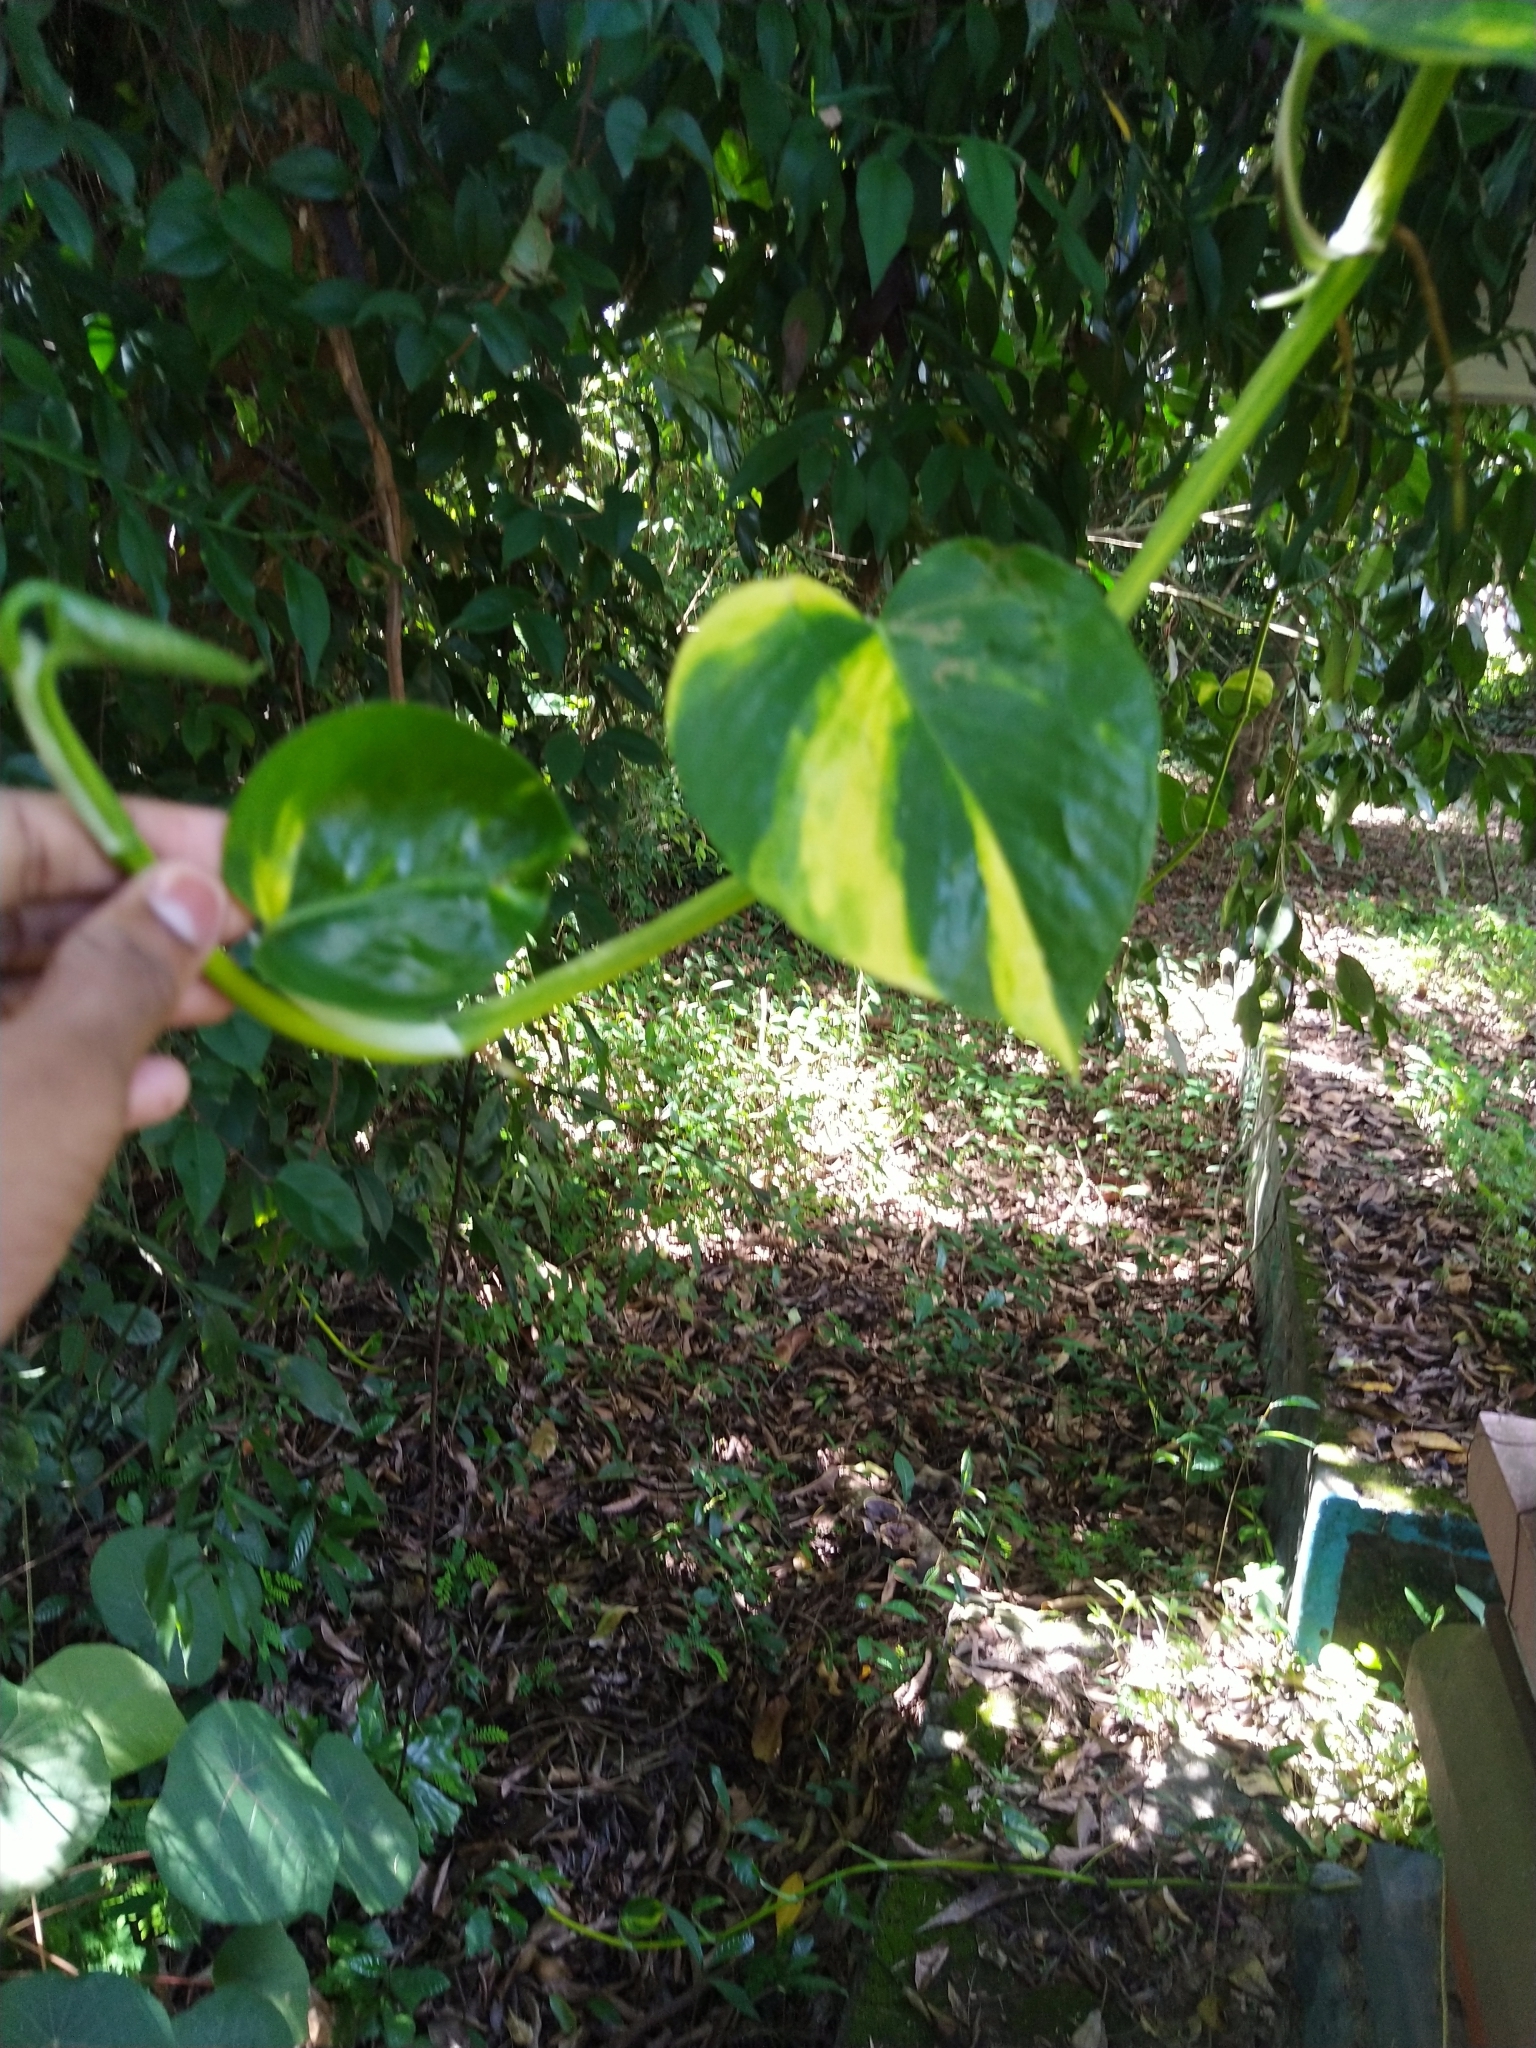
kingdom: Plantae
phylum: Tracheophyta
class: Liliopsida
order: Alismatales
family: Araceae
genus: Epipremnum
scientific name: Epipremnum aureum
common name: Golden hunter's-robe
